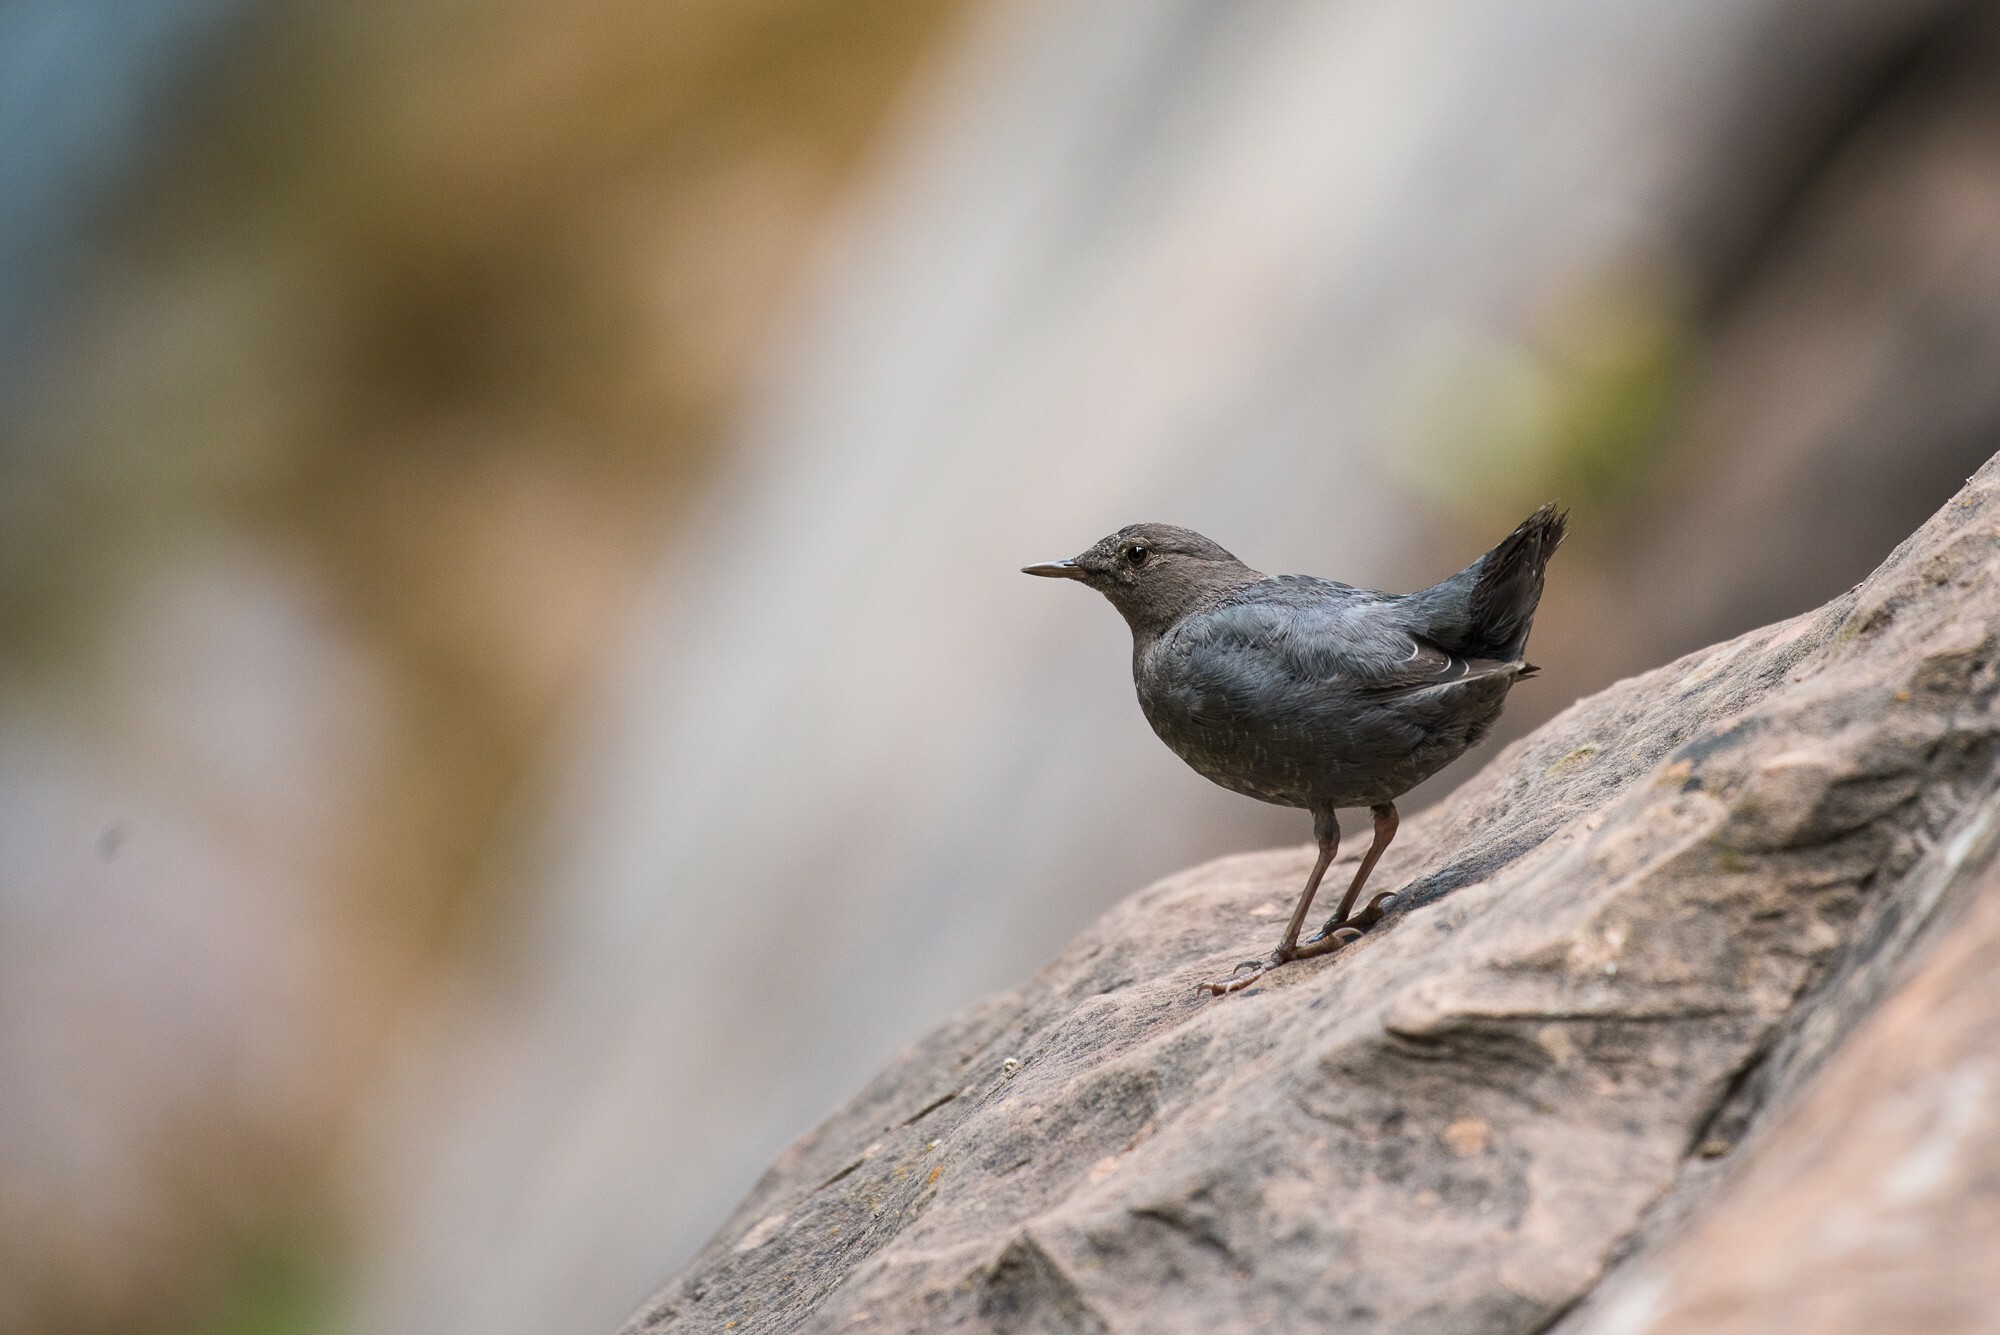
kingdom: Animalia
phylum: Chordata
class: Aves
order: Passeriformes
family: Cinclidae
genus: Cinclus
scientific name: Cinclus mexicanus
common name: American dipper
